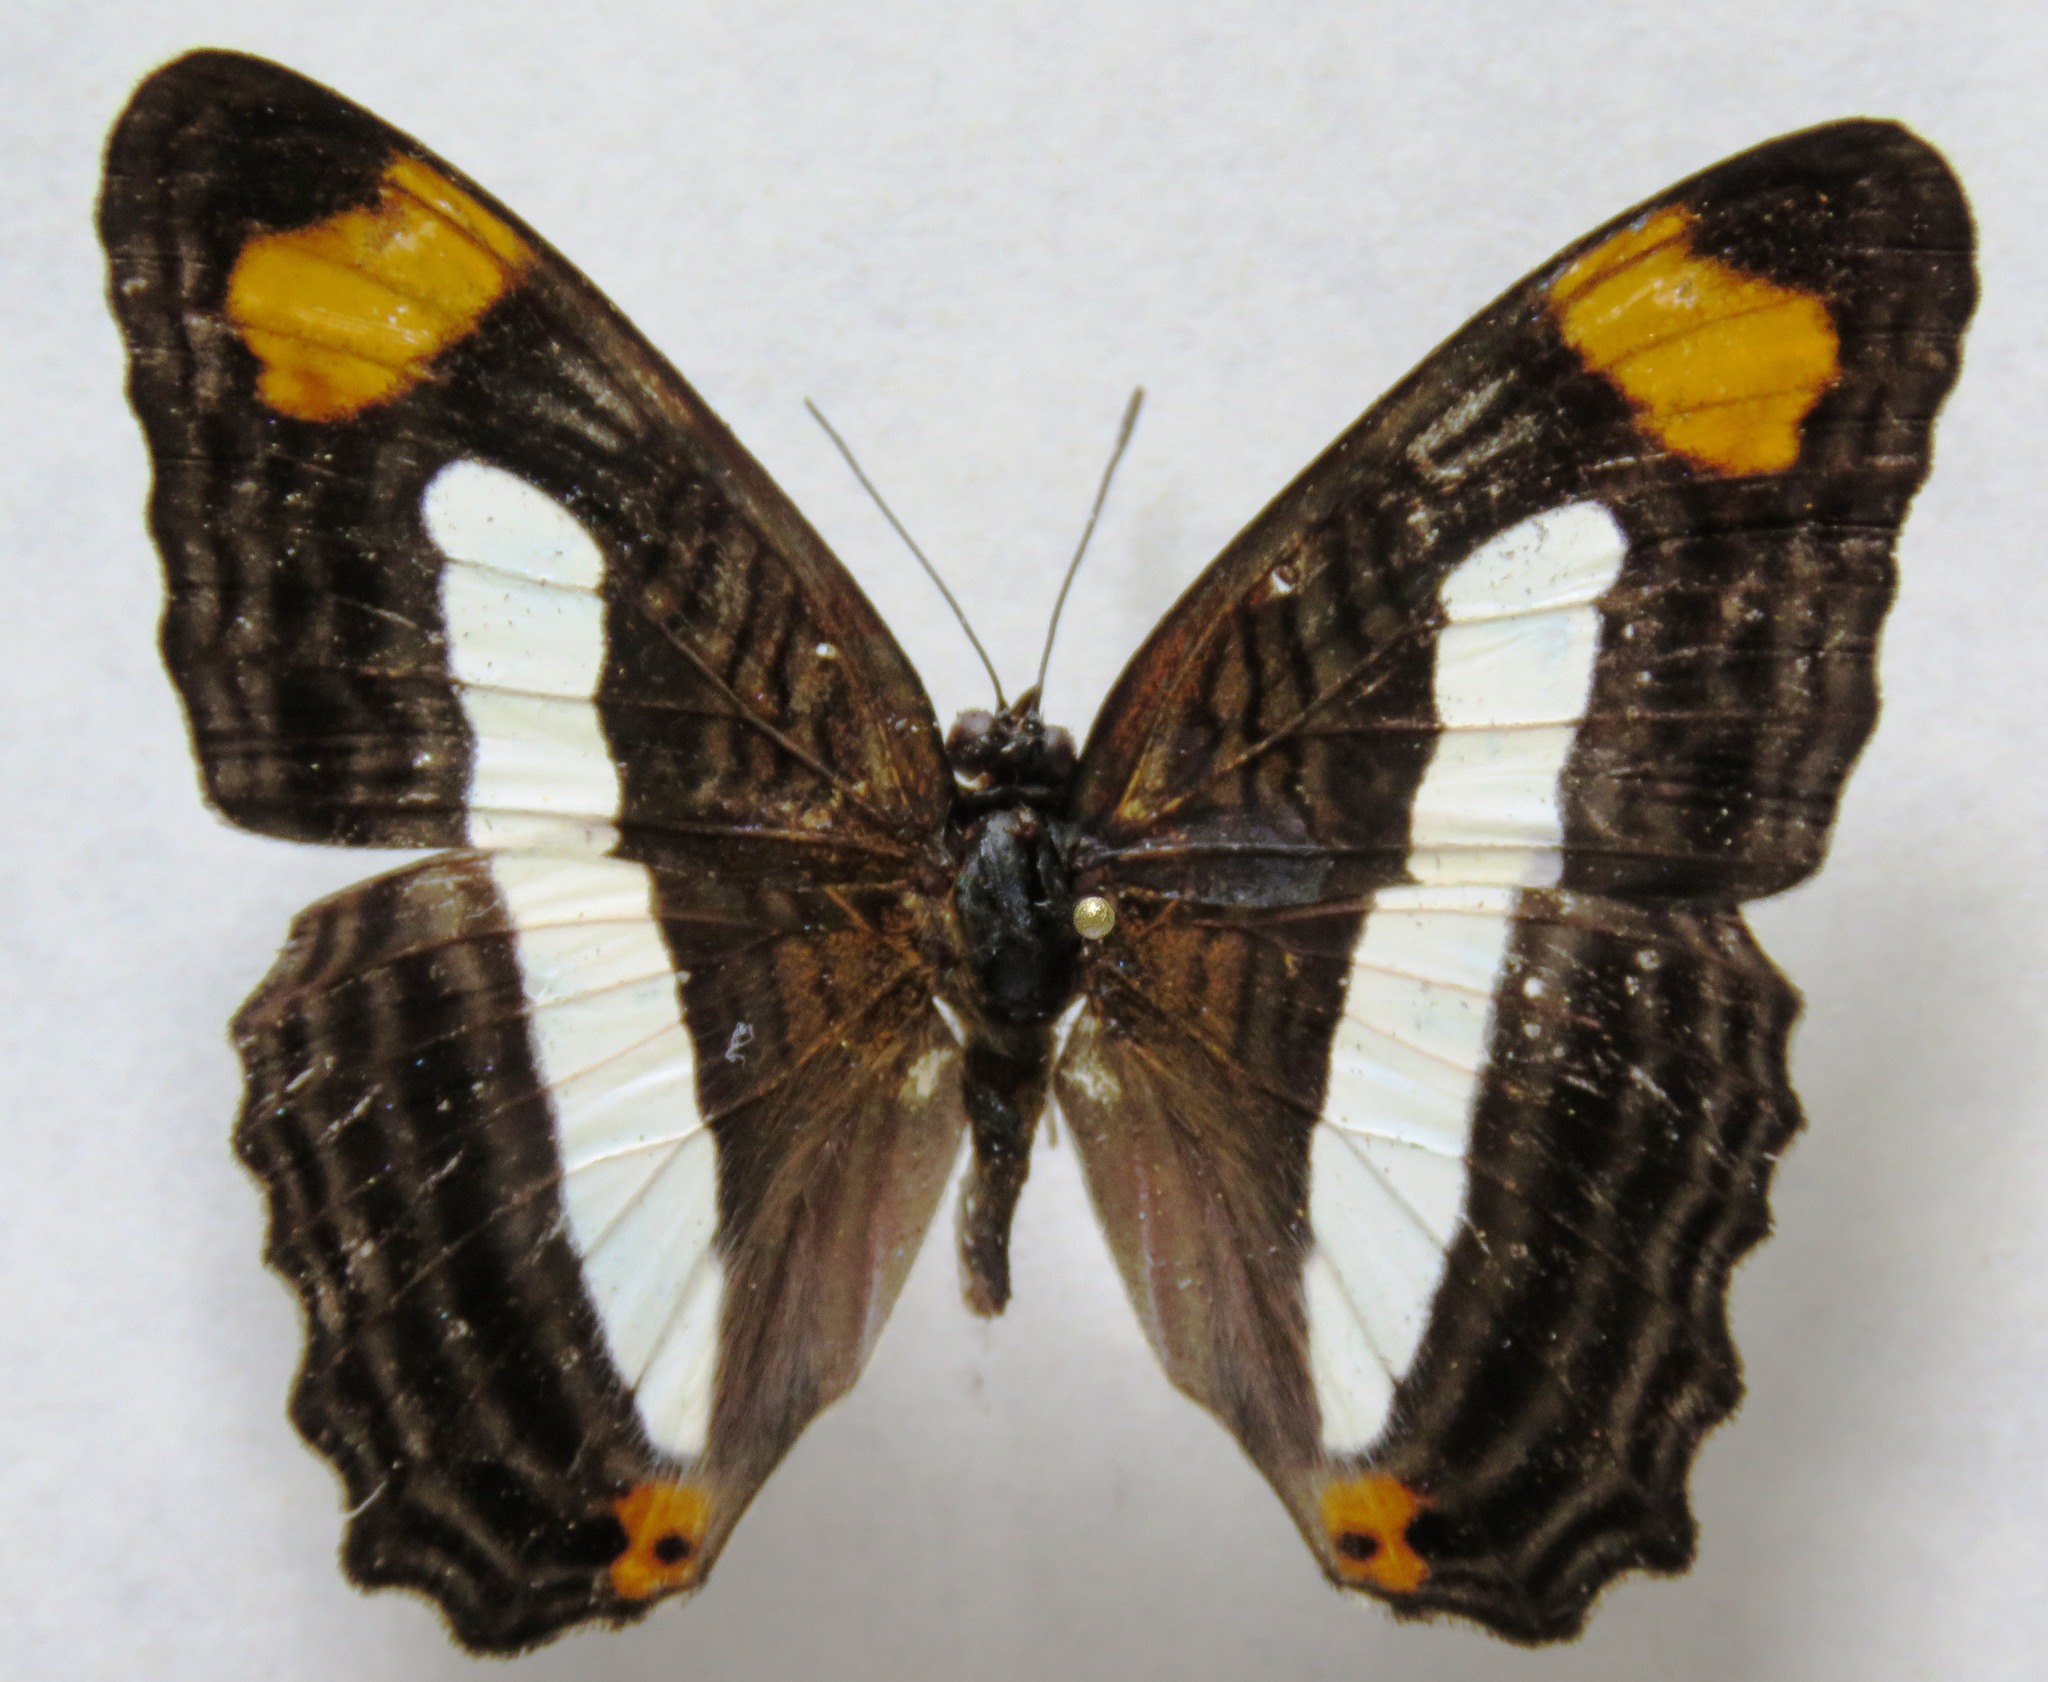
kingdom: Animalia
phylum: Arthropoda
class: Insecta
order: Lepidoptera
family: Nymphalidae
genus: Limenitis
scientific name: Limenitis iphiclus
